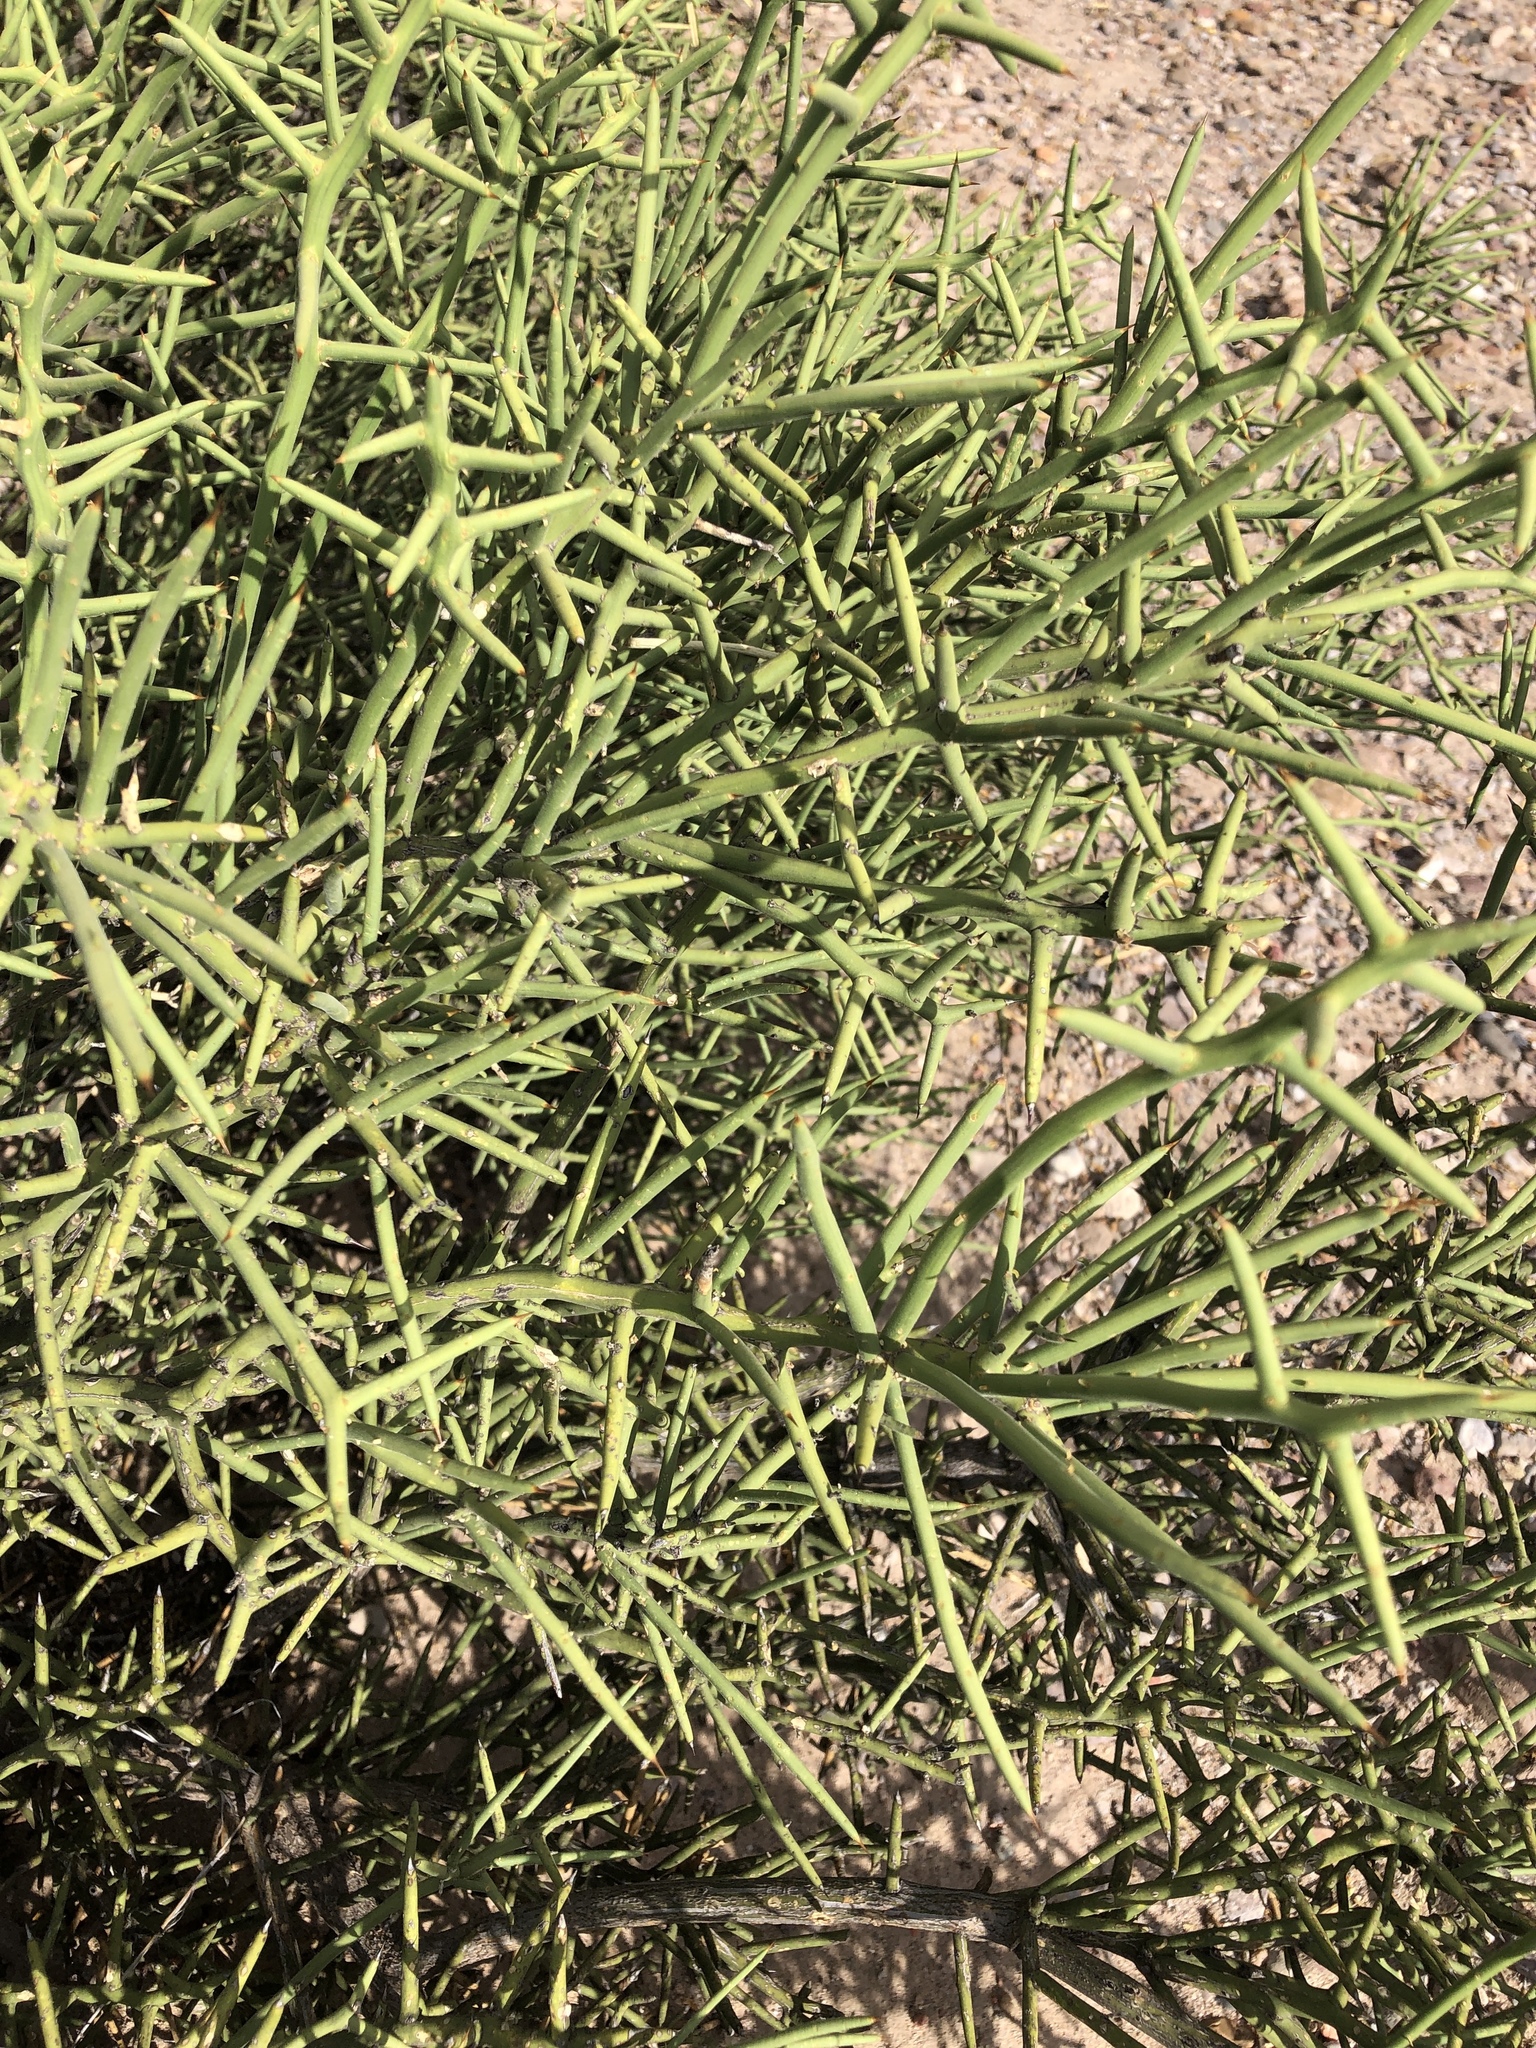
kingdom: Plantae
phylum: Tracheophyta
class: Magnoliopsida
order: Brassicales
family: Koeberliniaceae
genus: Koeberlinia
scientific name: Koeberlinia spinosa
